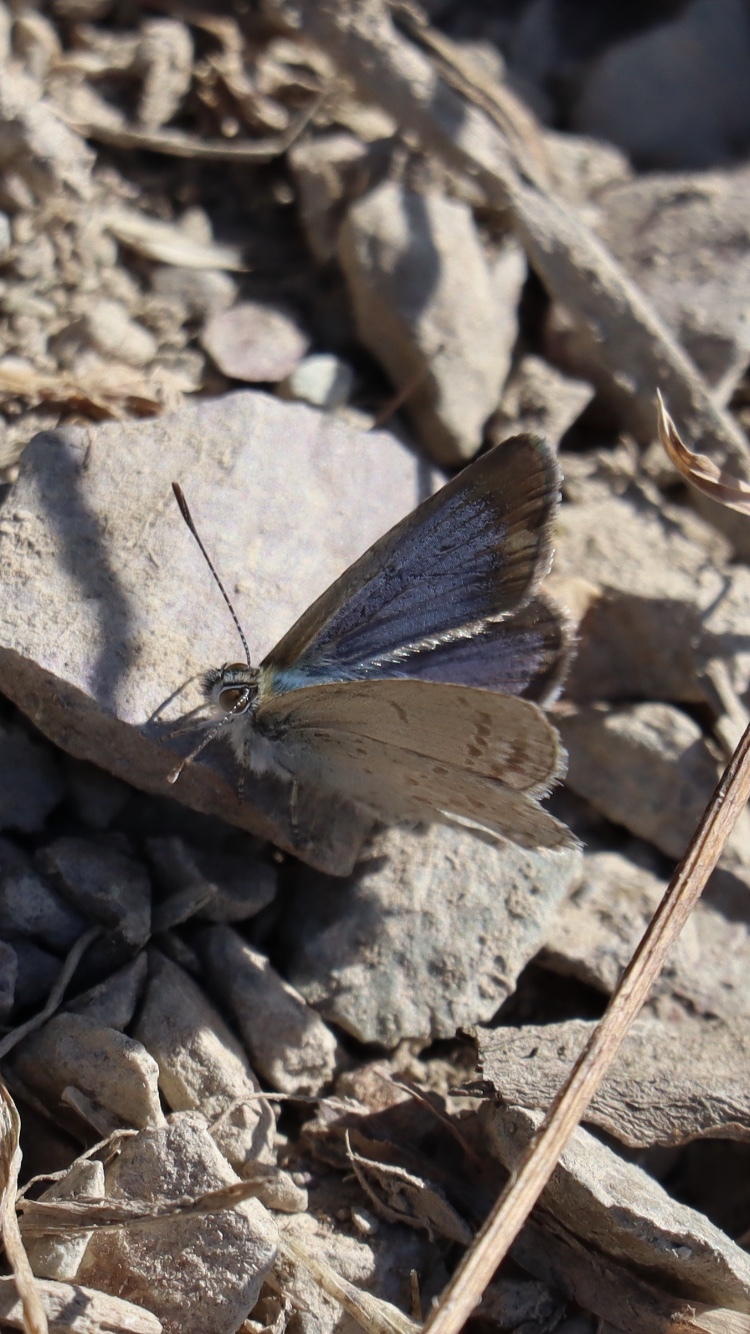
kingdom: Animalia
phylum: Arthropoda
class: Insecta
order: Lepidoptera
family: Lycaenidae
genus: Zizina
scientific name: Zizina labradus
